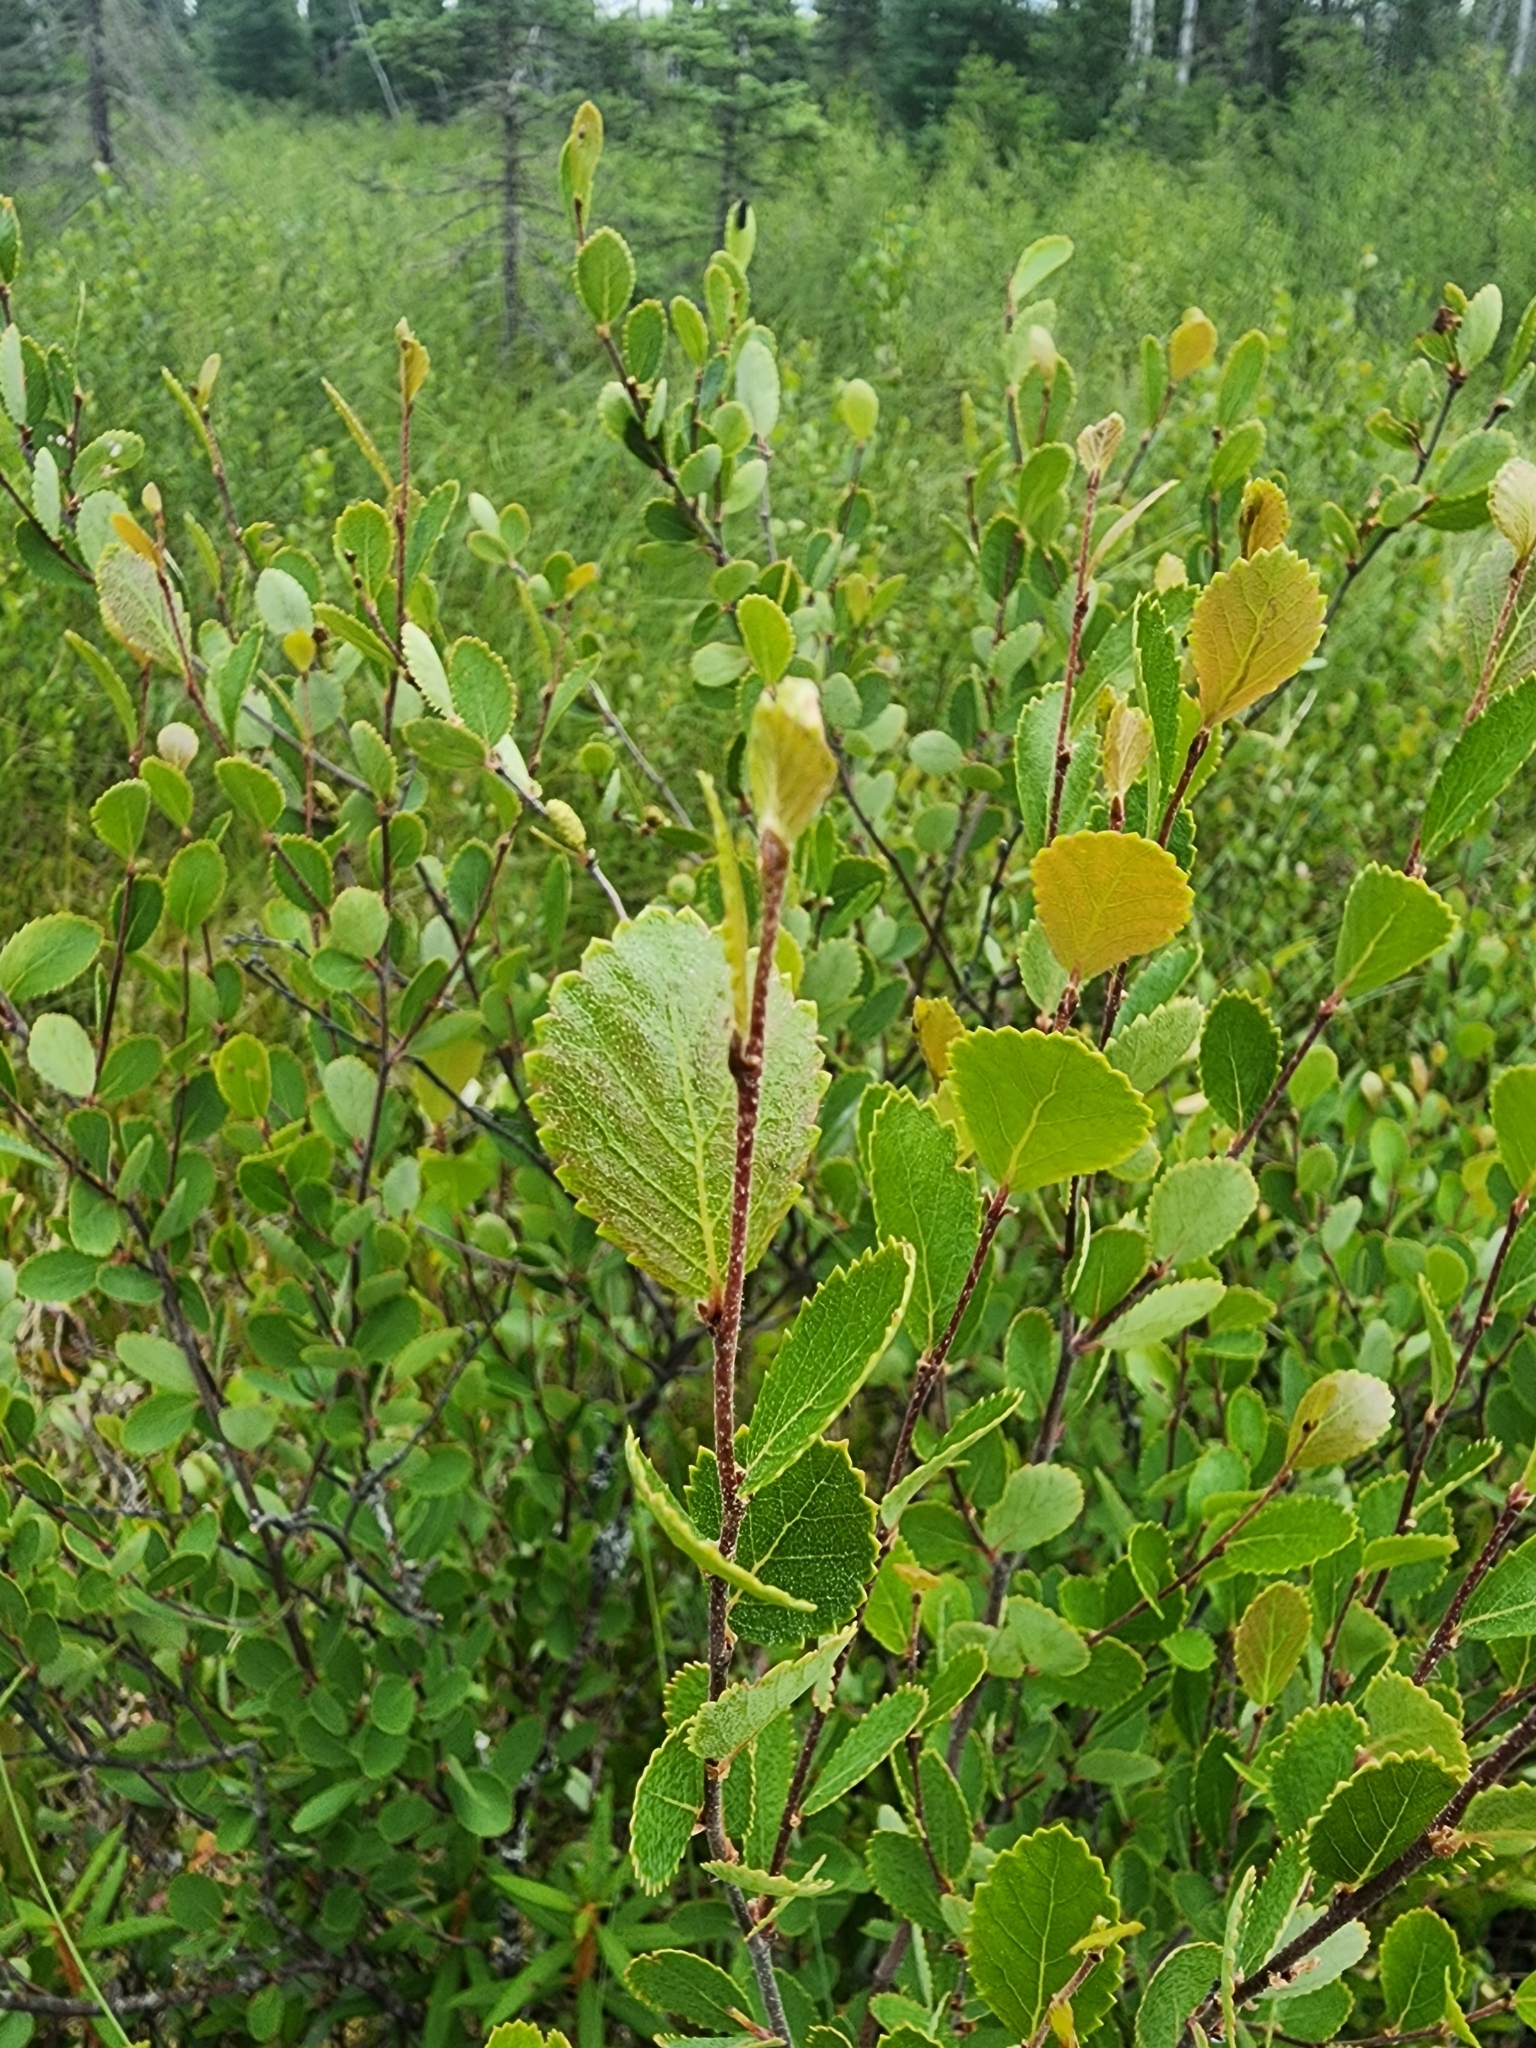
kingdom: Plantae
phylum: Tracheophyta
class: Magnoliopsida
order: Fagales
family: Betulaceae
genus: Betula
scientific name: Betula pumila
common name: Bog birch
